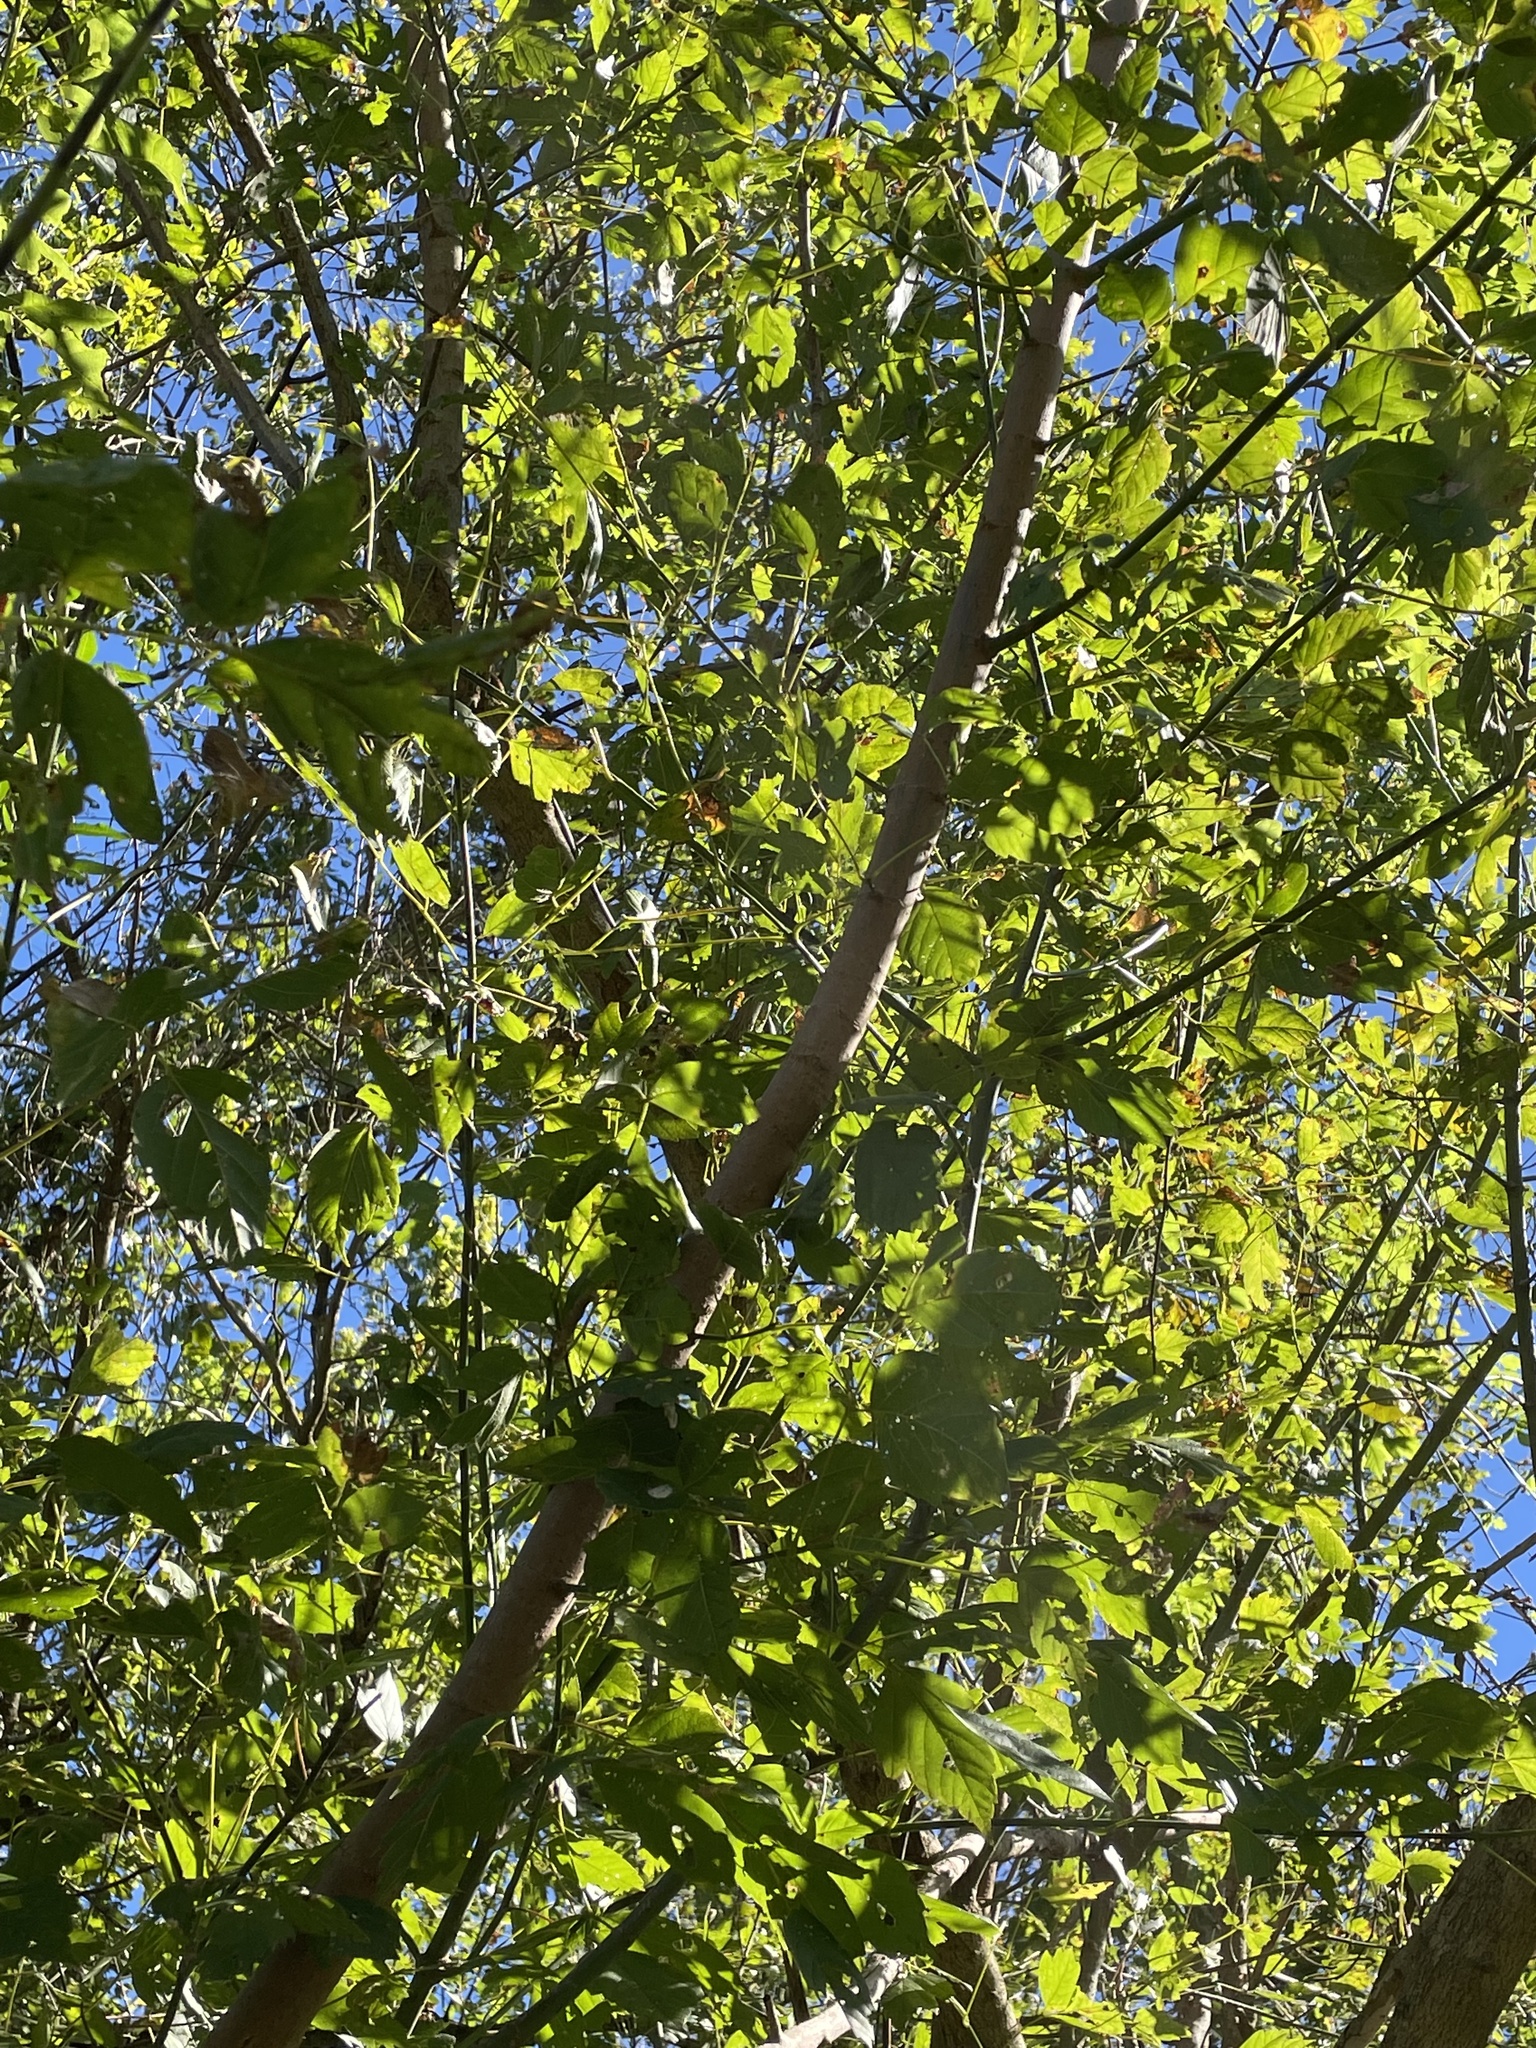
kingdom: Plantae
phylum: Tracheophyta
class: Magnoliopsida
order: Sapindales
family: Sapindaceae
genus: Acer
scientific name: Acer negundo
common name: Ashleaf maple
